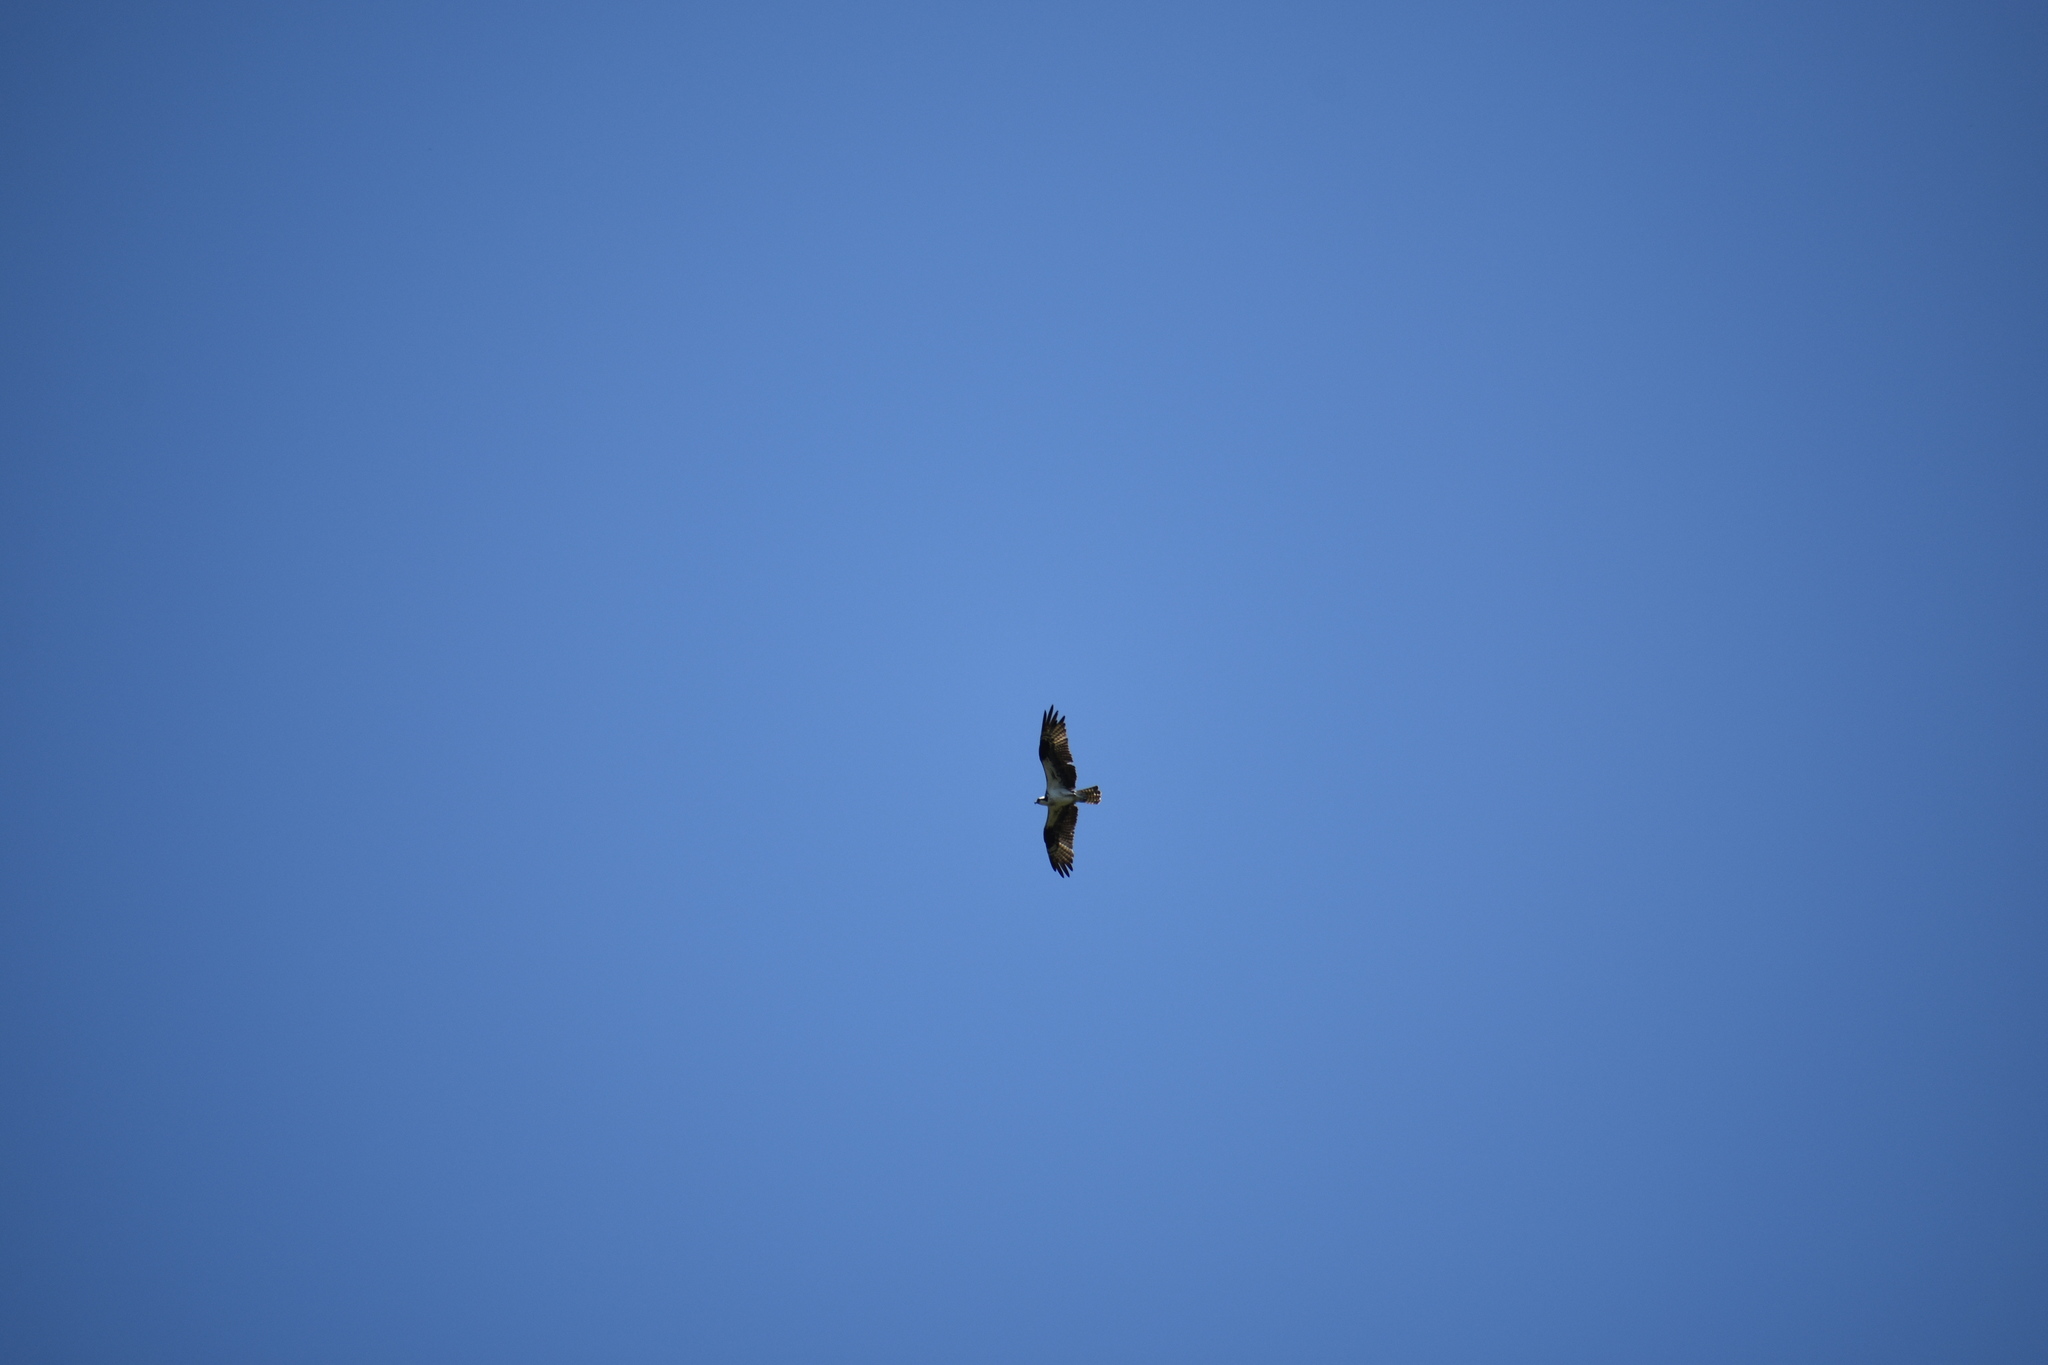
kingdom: Animalia
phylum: Chordata
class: Aves
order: Accipitriformes
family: Pandionidae
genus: Pandion
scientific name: Pandion haliaetus
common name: Osprey
